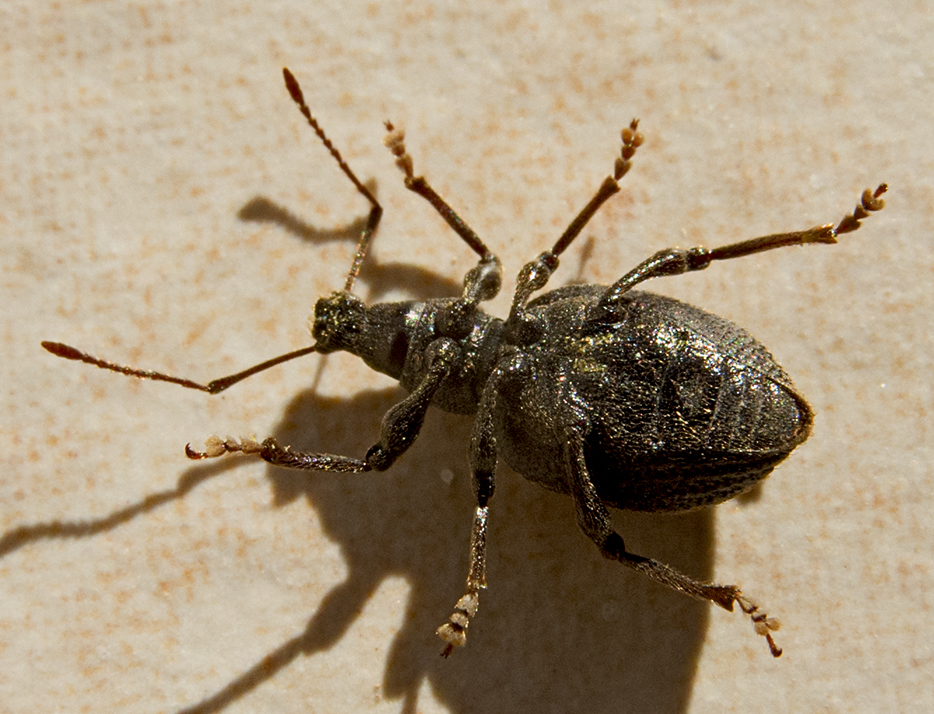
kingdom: Animalia
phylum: Arthropoda
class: Insecta
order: Coleoptera
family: Curculionidae
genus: Otiorhynchus
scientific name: Otiorhynchus aurifer
